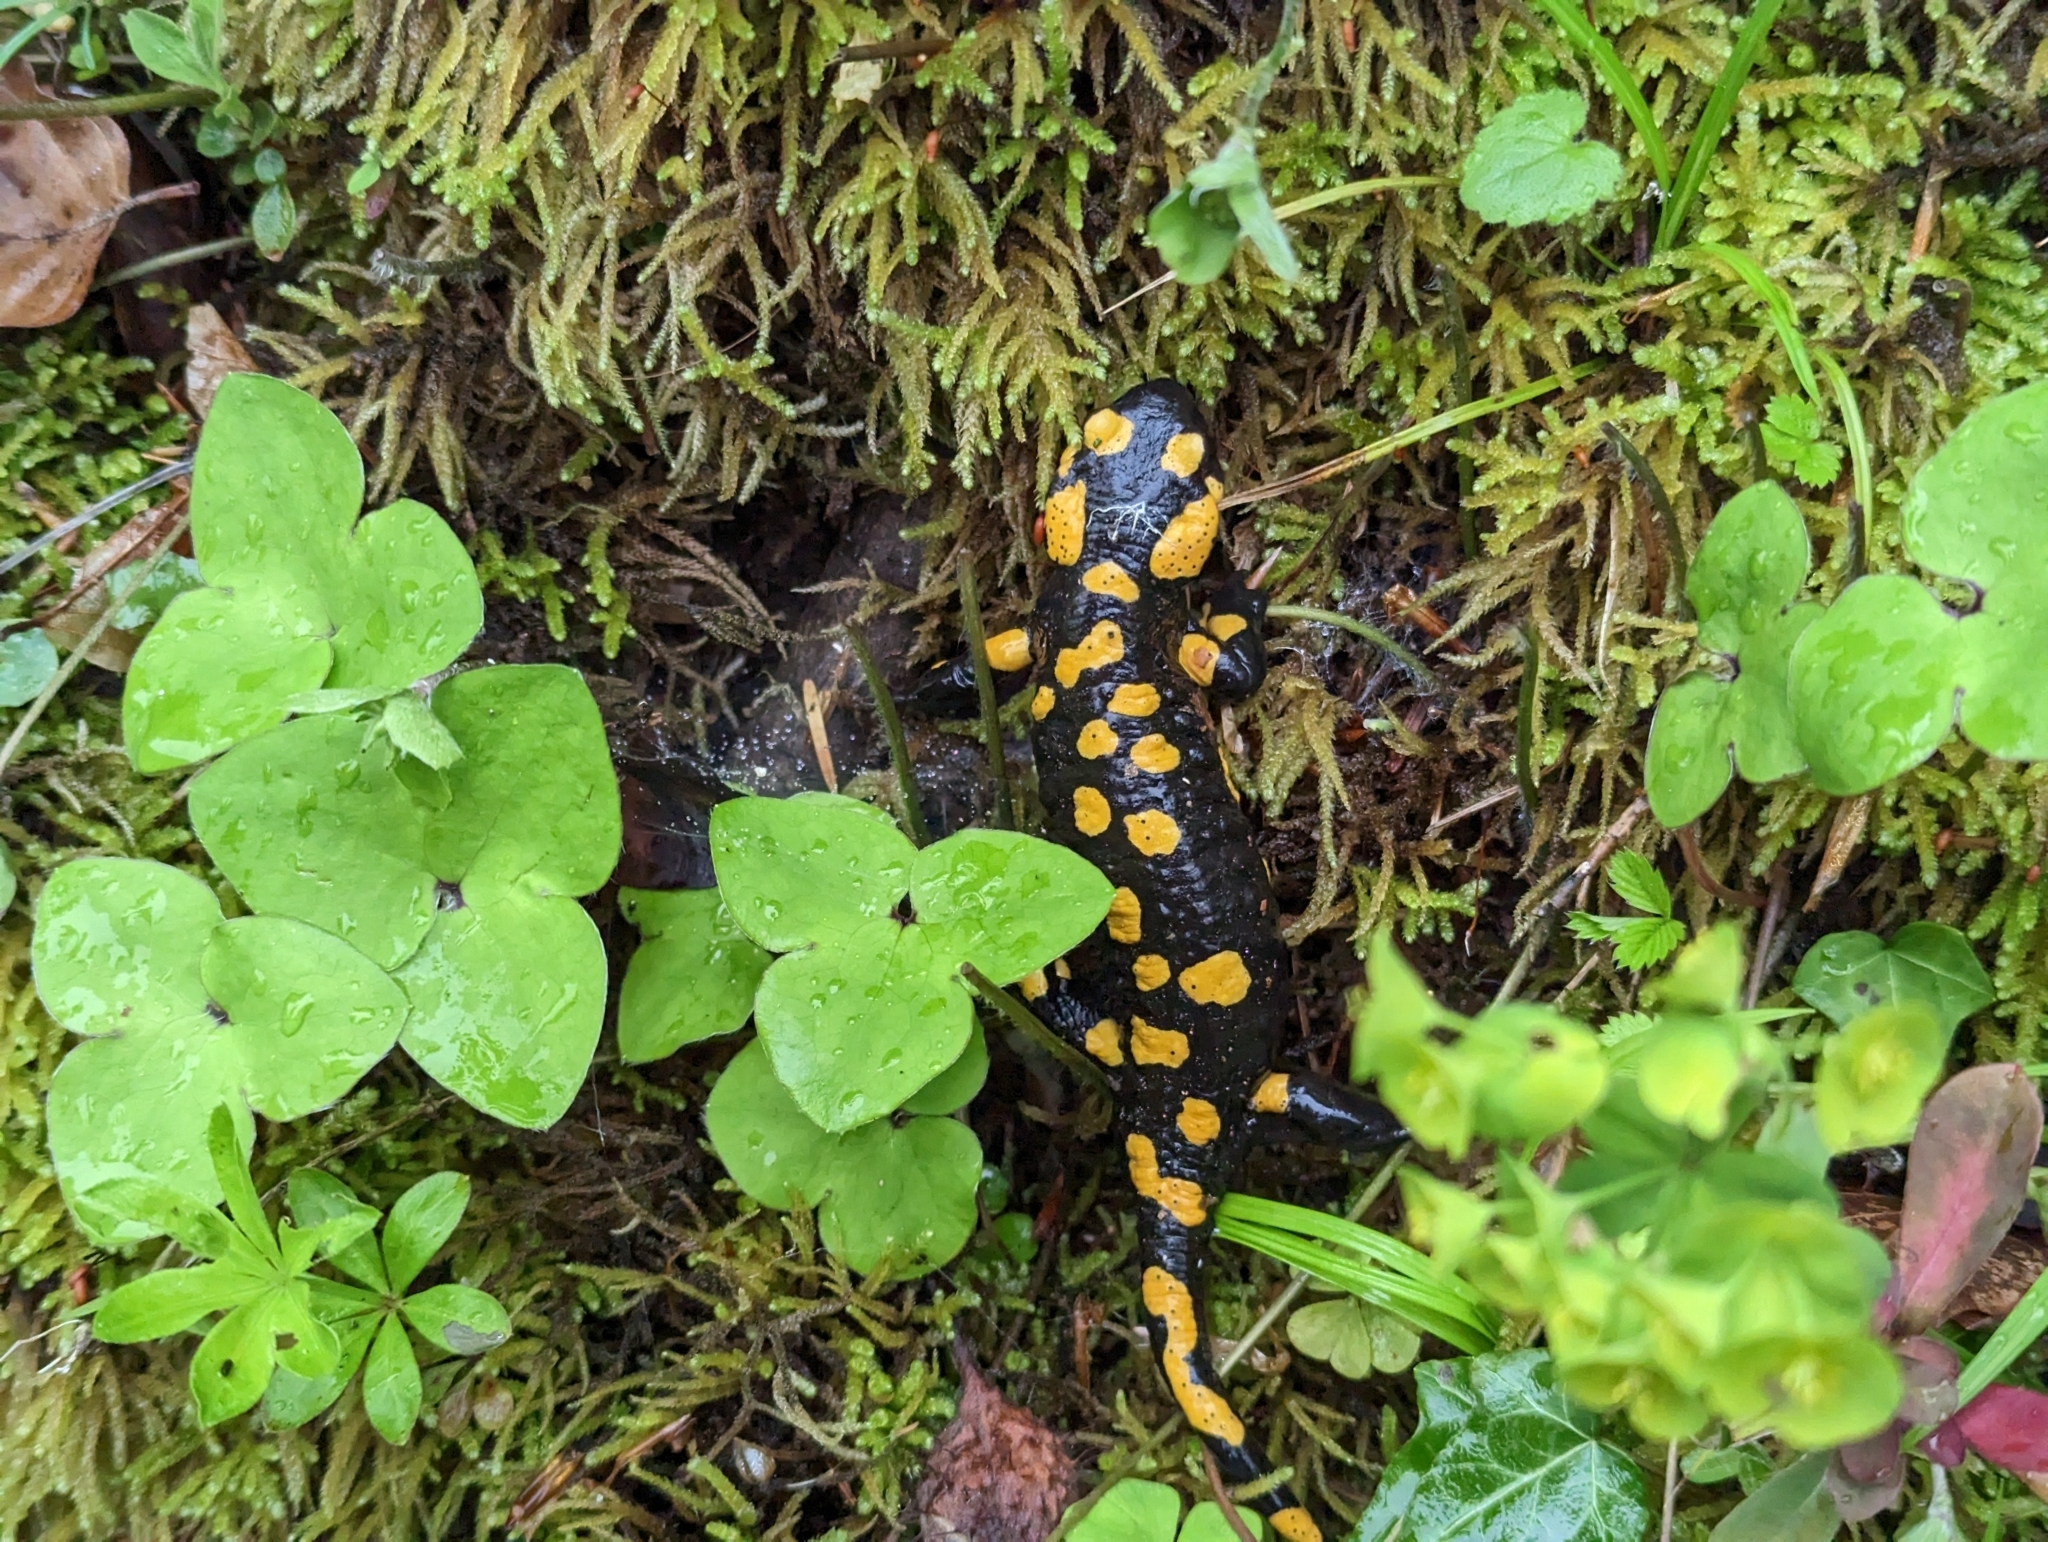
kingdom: Animalia
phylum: Chordata
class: Amphibia
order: Caudata
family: Salamandridae
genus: Salamandra
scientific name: Salamandra salamandra
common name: Fire salamander
